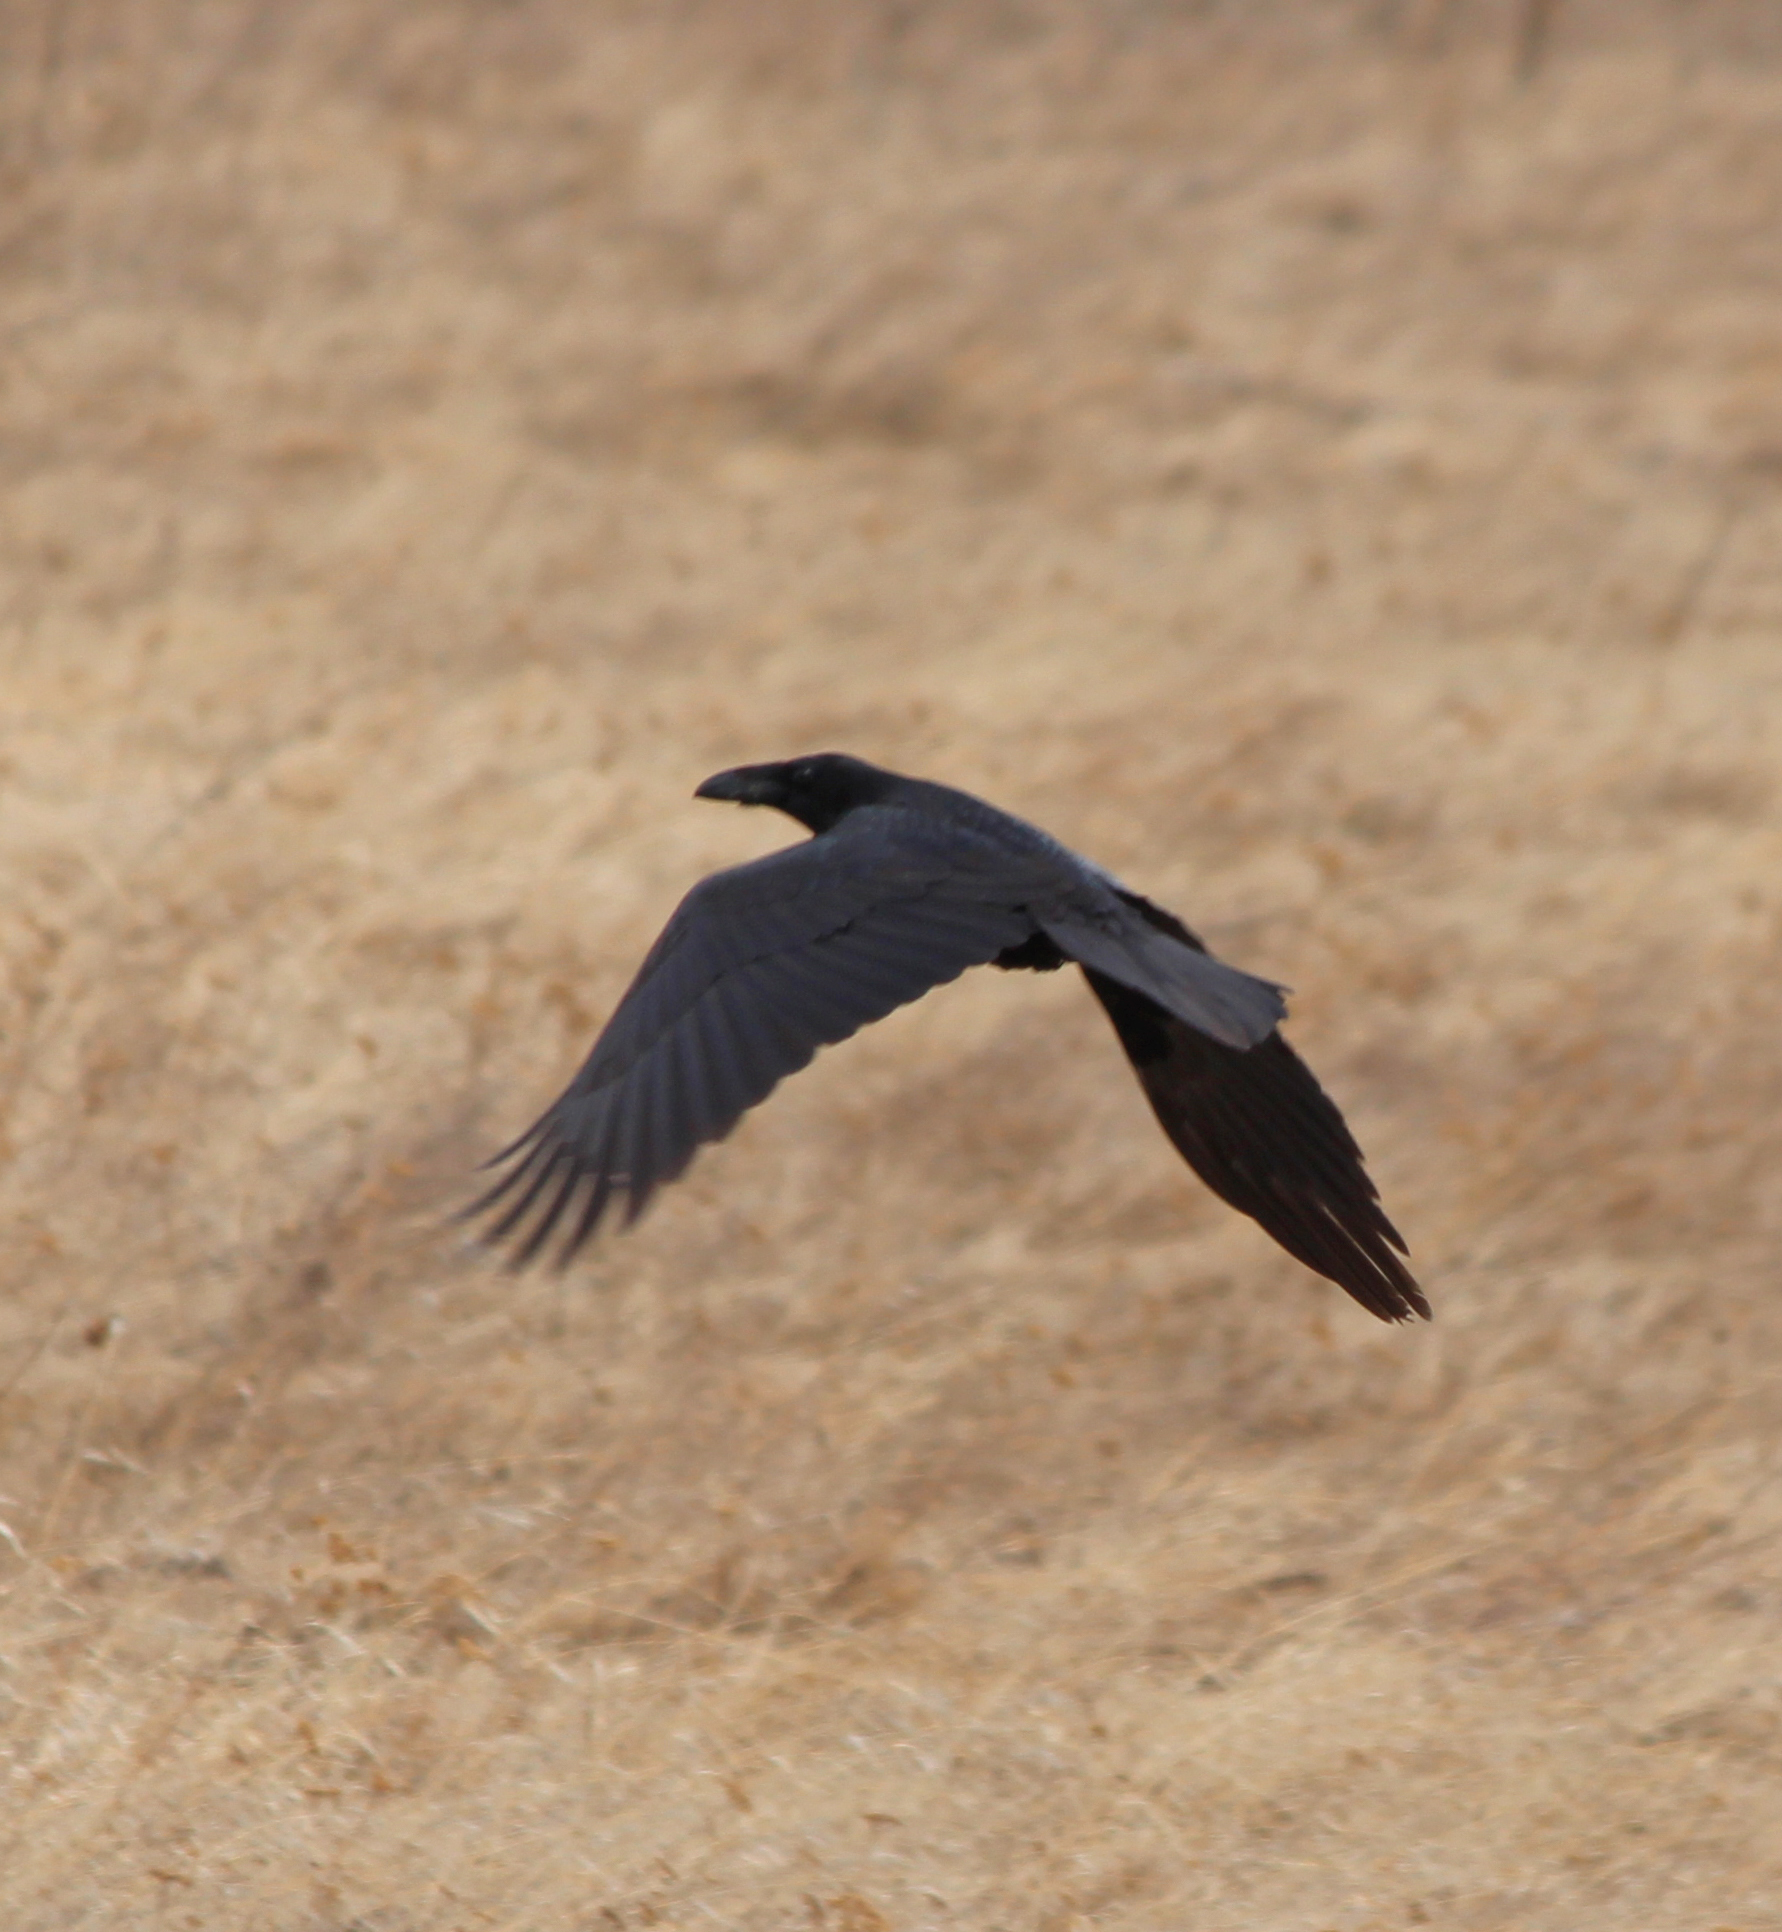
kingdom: Animalia
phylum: Chordata
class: Aves
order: Passeriformes
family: Corvidae
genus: Corvus
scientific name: Corvus corax
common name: Common raven
